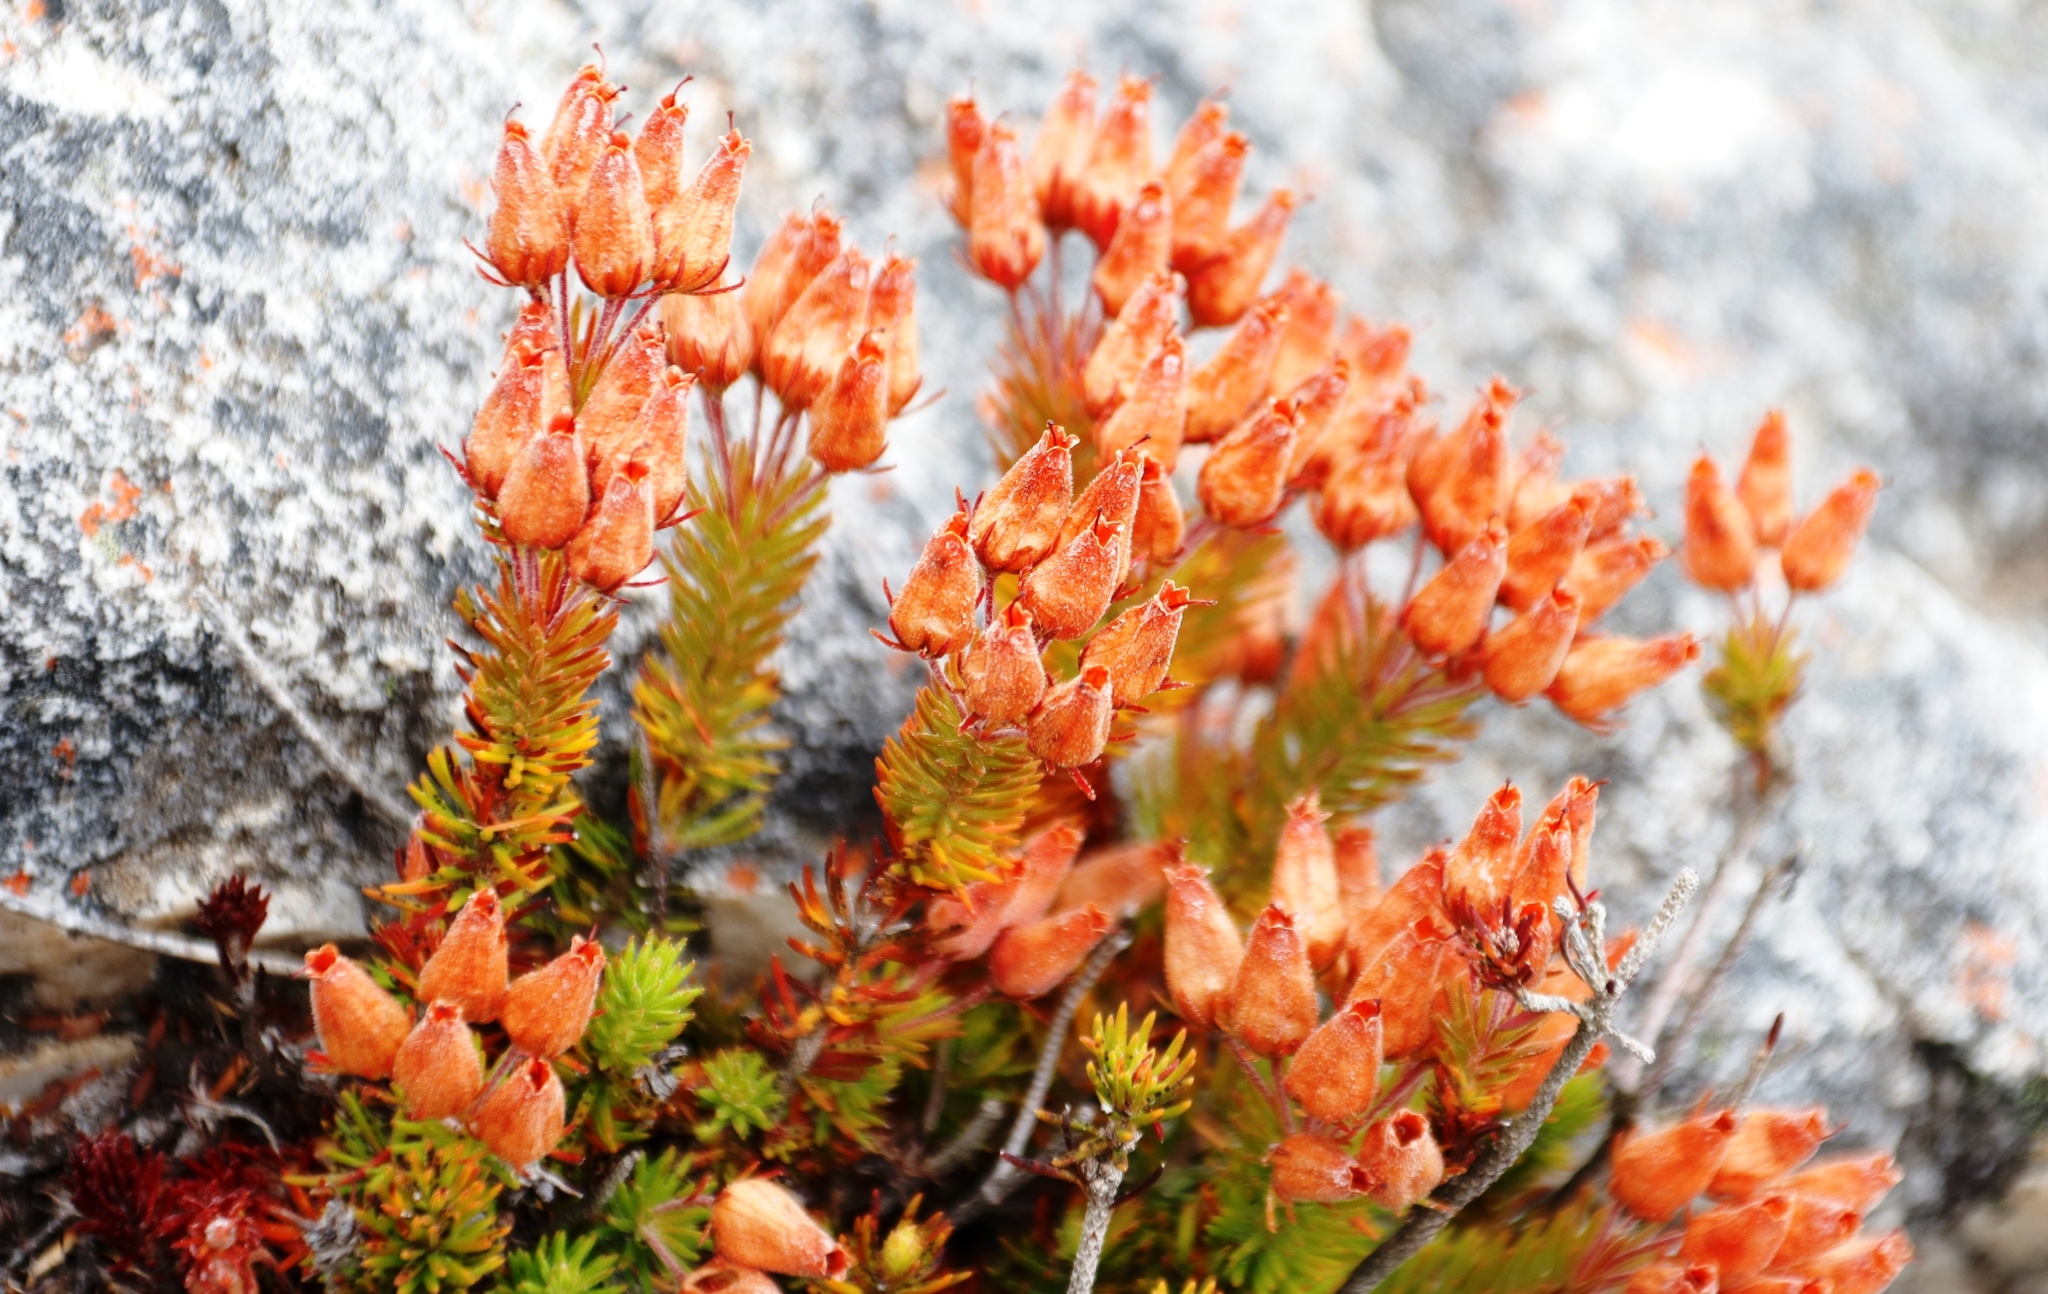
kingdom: Plantae
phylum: Tracheophyta
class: Magnoliopsida
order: Ericales
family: Ericaceae
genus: Erica
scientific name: Erica doliiformis
